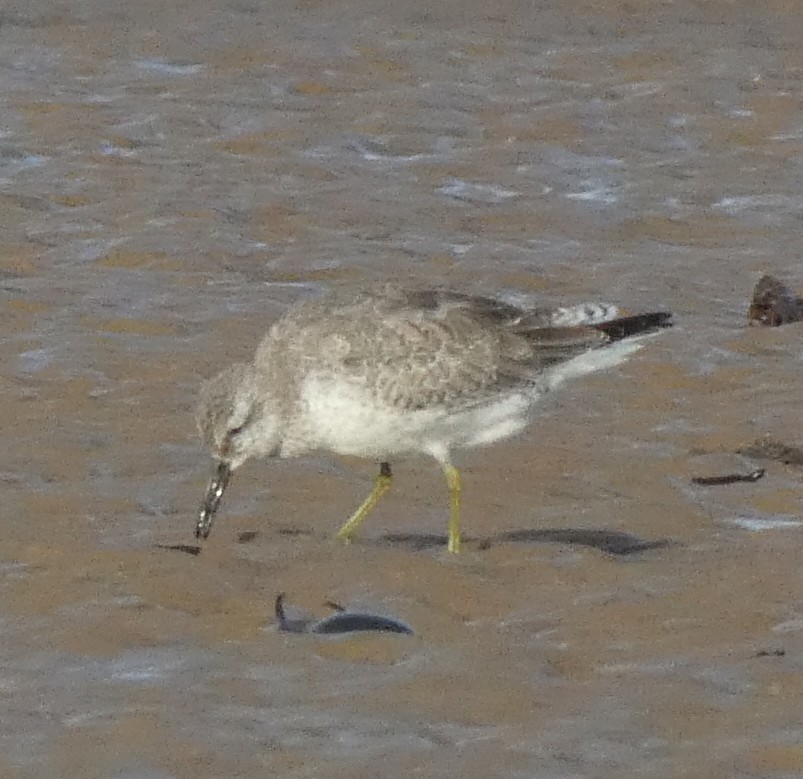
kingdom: Animalia
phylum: Chordata
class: Aves
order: Charadriiformes
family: Scolopacidae
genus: Calidris
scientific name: Calidris canutus
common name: Red knot
